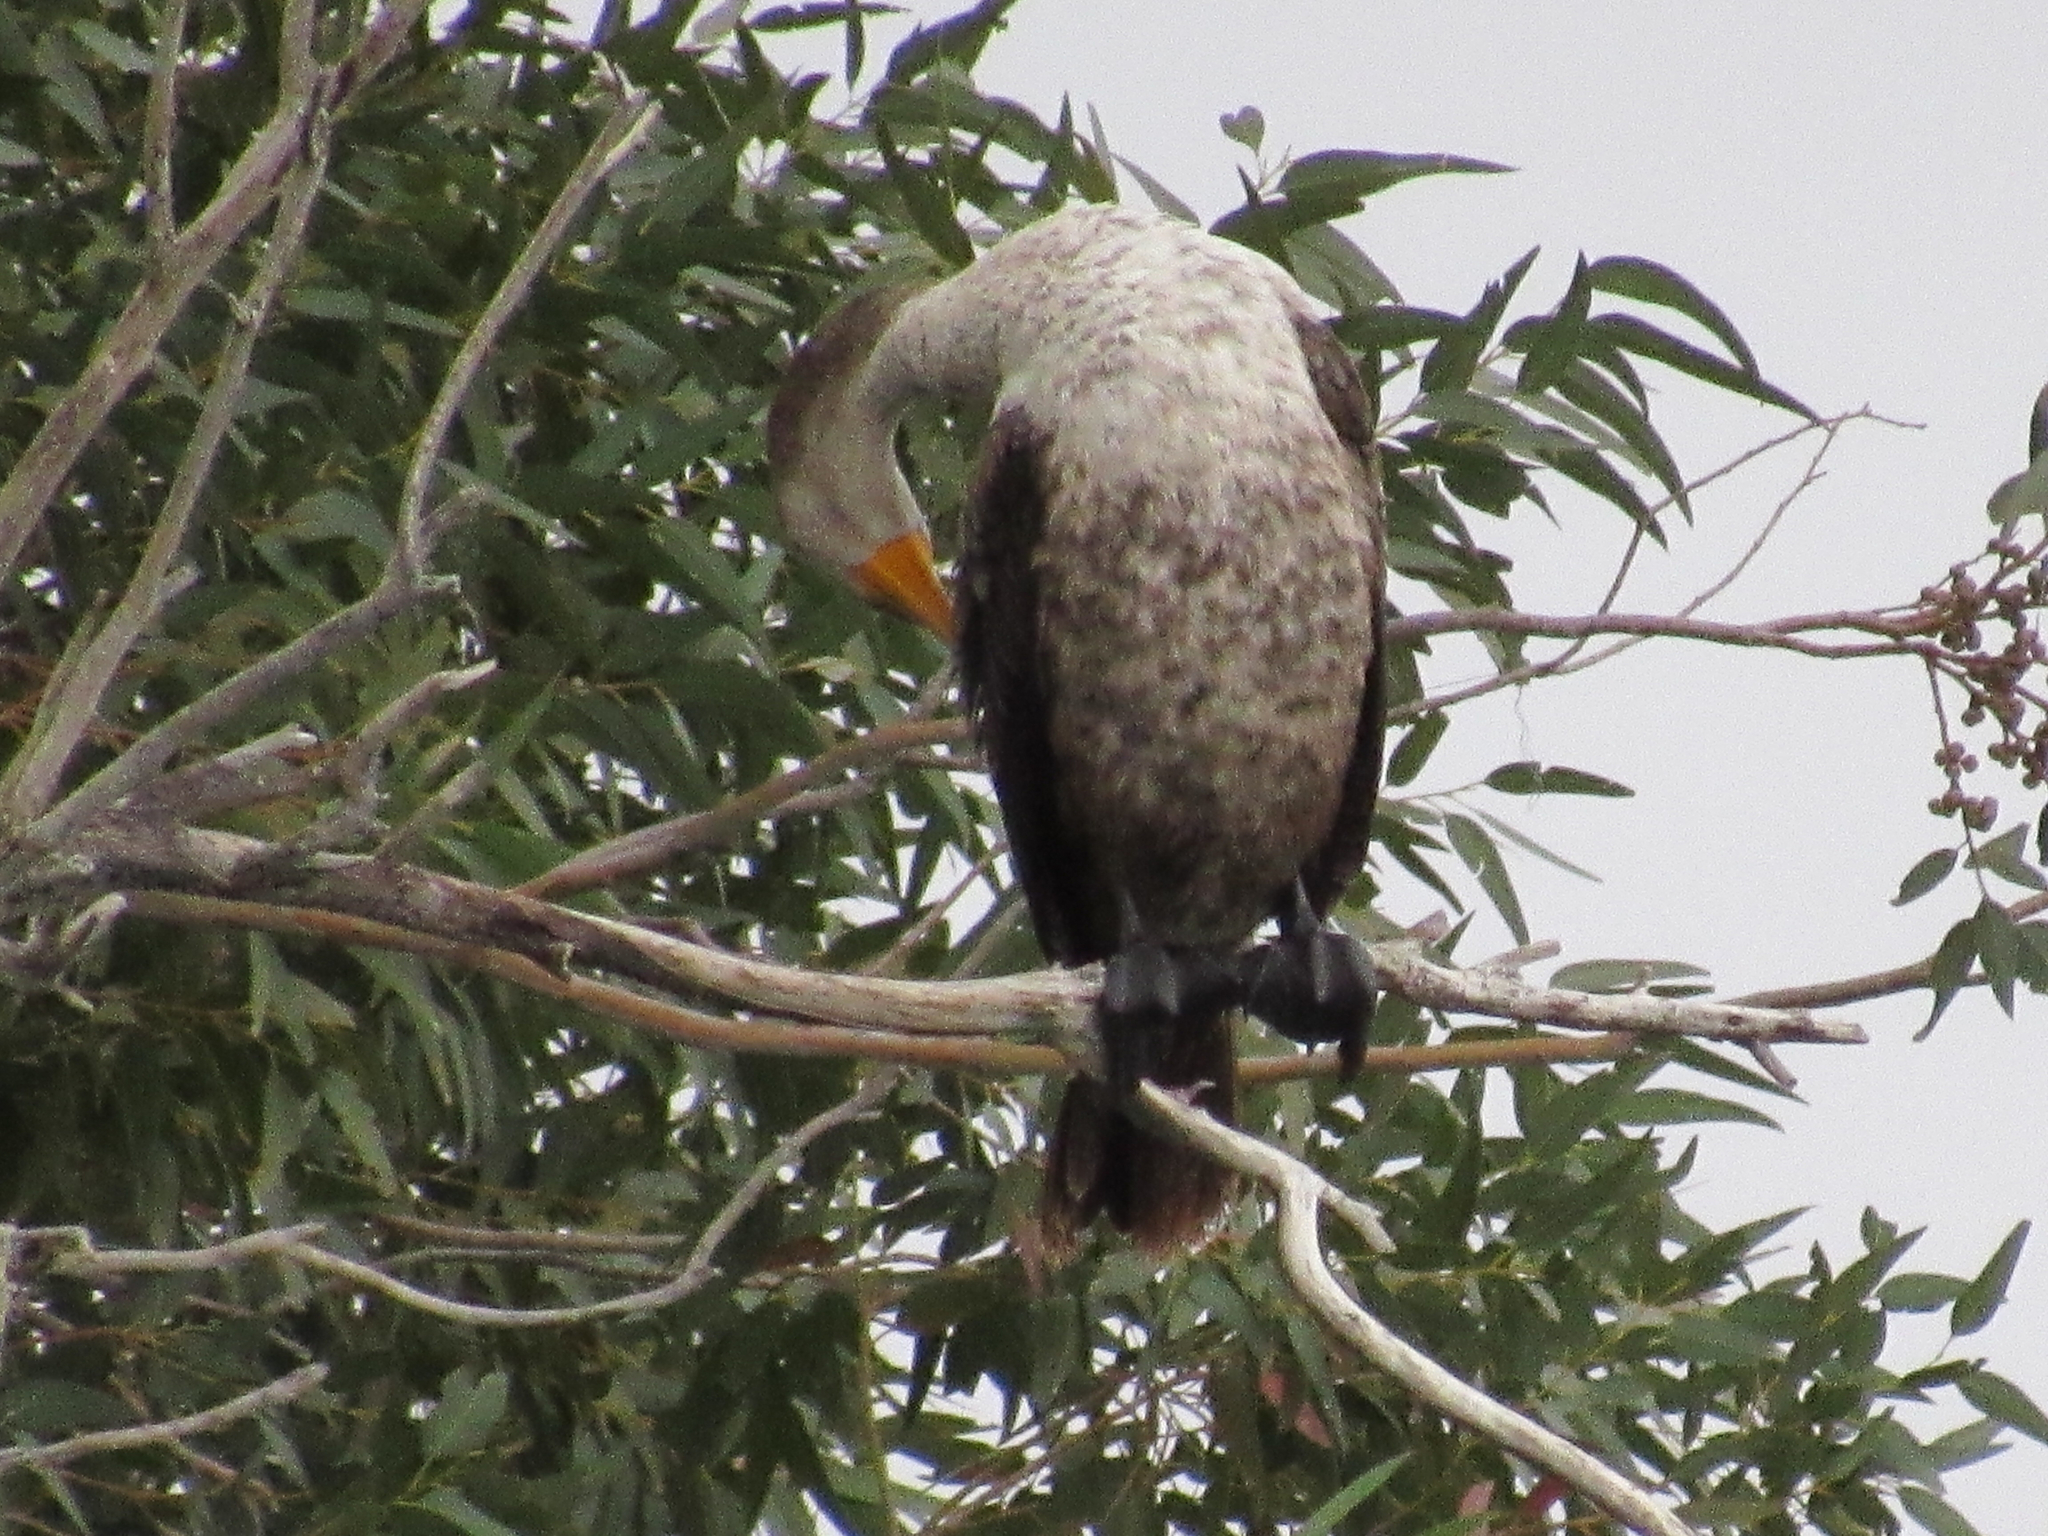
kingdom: Animalia
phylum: Chordata
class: Aves
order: Suliformes
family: Phalacrocoracidae
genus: Phalacrocorax
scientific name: Phalacrocorax auritus
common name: Double-crested cormorant
